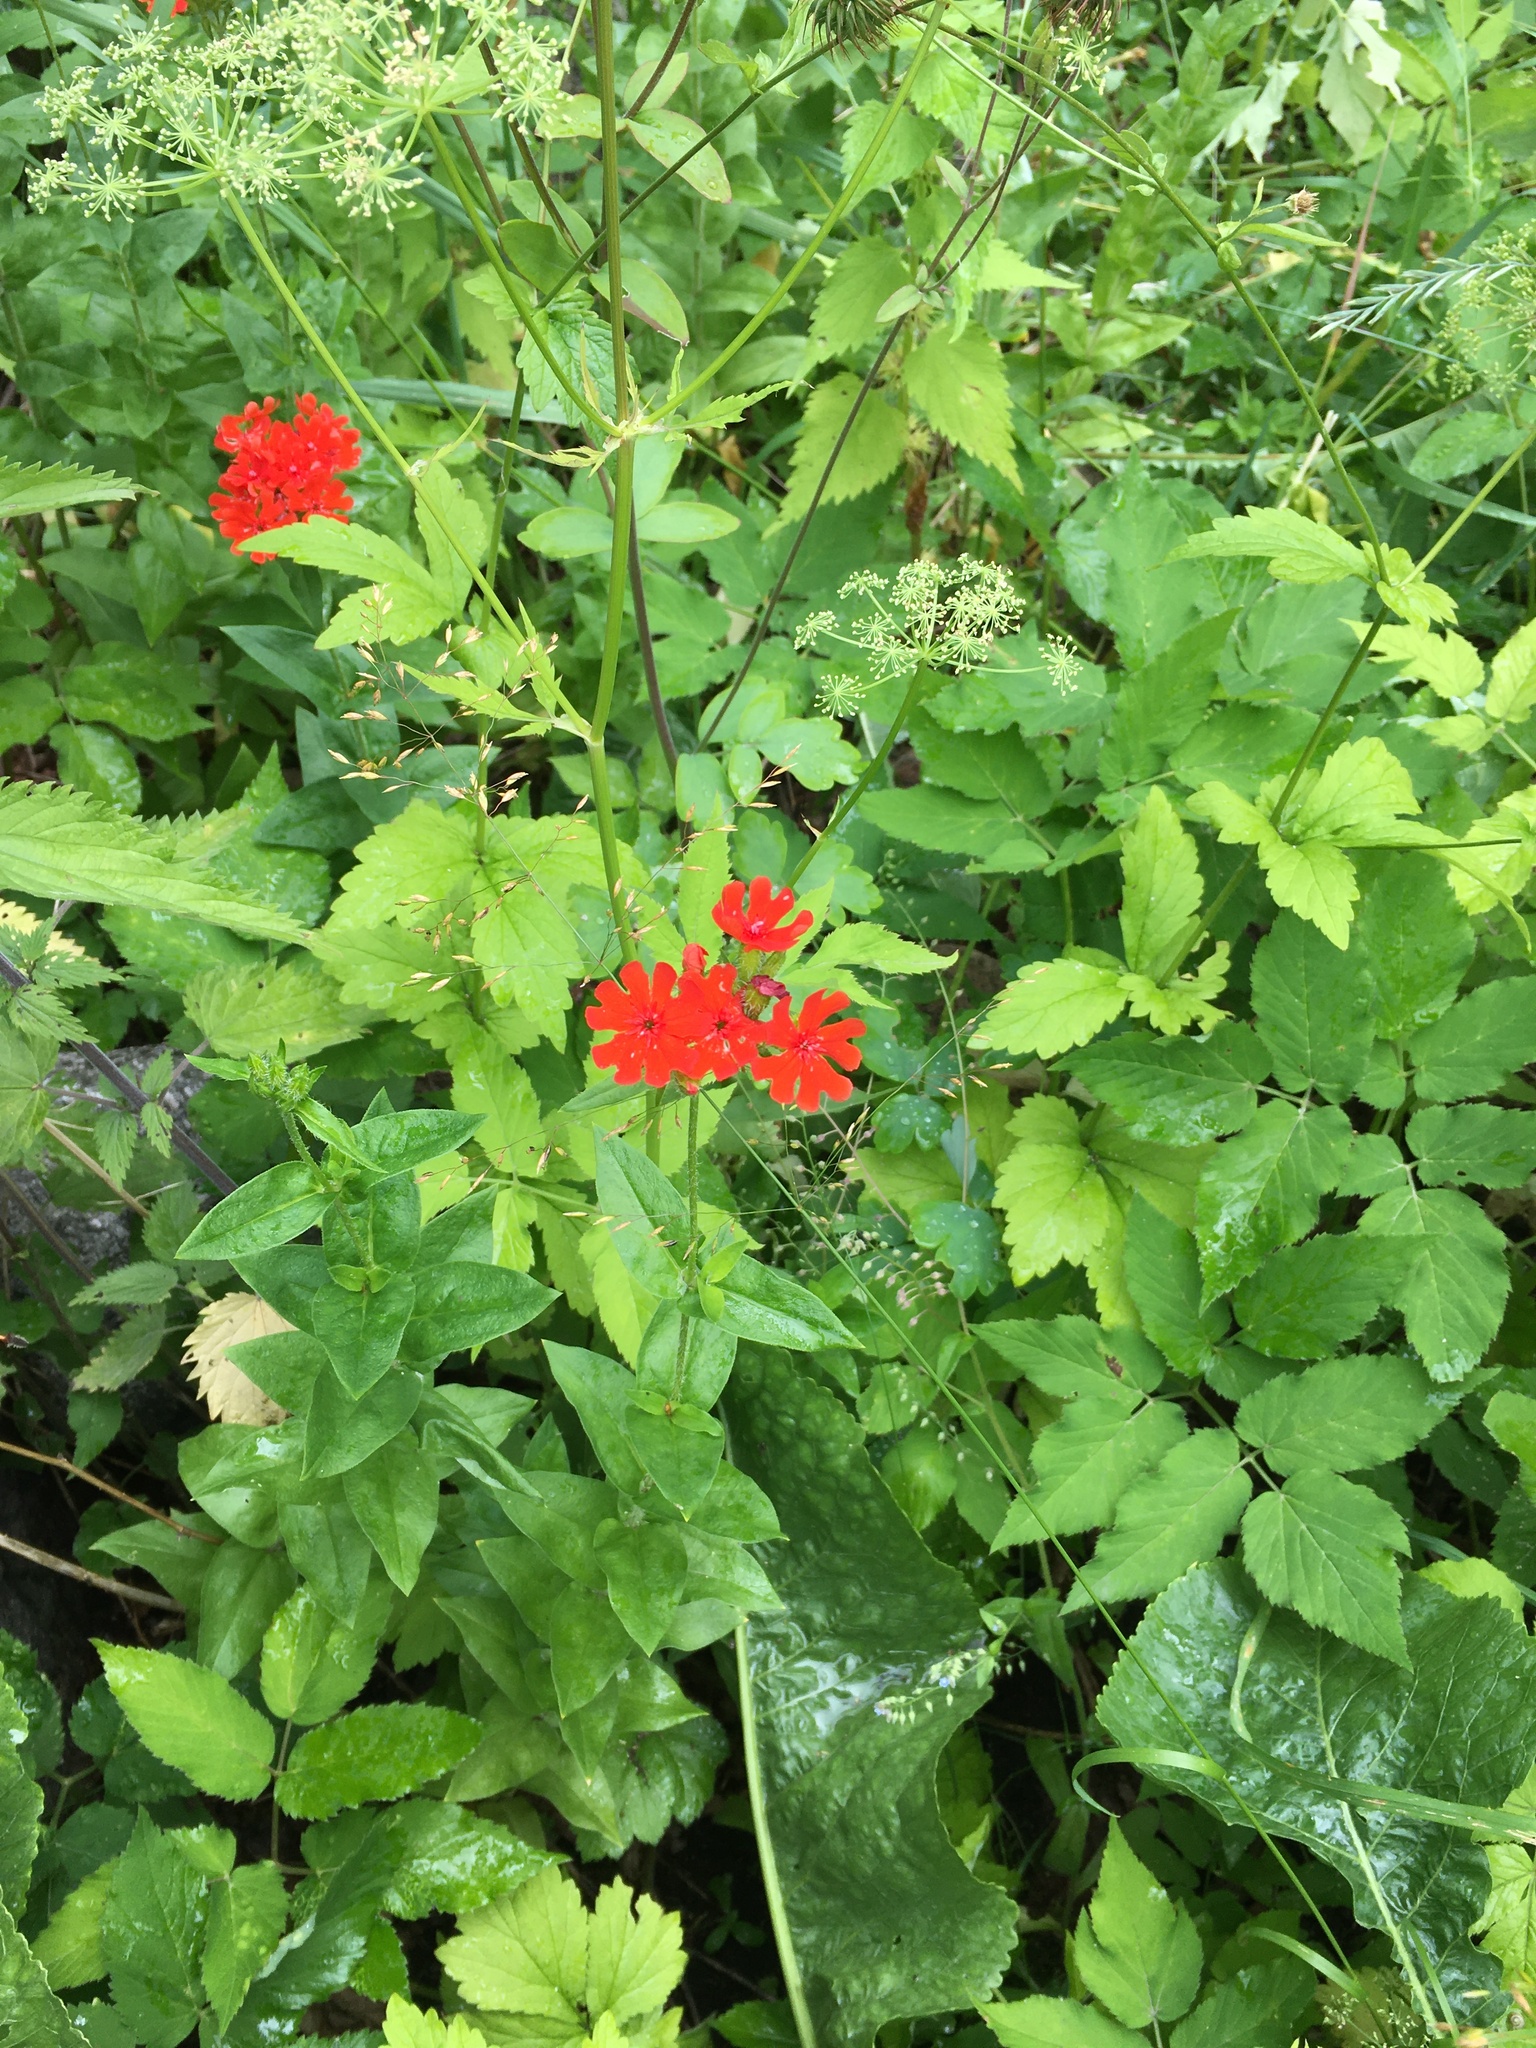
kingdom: Plantae
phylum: Tracheophyta
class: Magnoliopsida
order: Caryophyllales
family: Caryophyllaceae
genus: Silene
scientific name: Silene chalcedonica
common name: Maltese-cross
